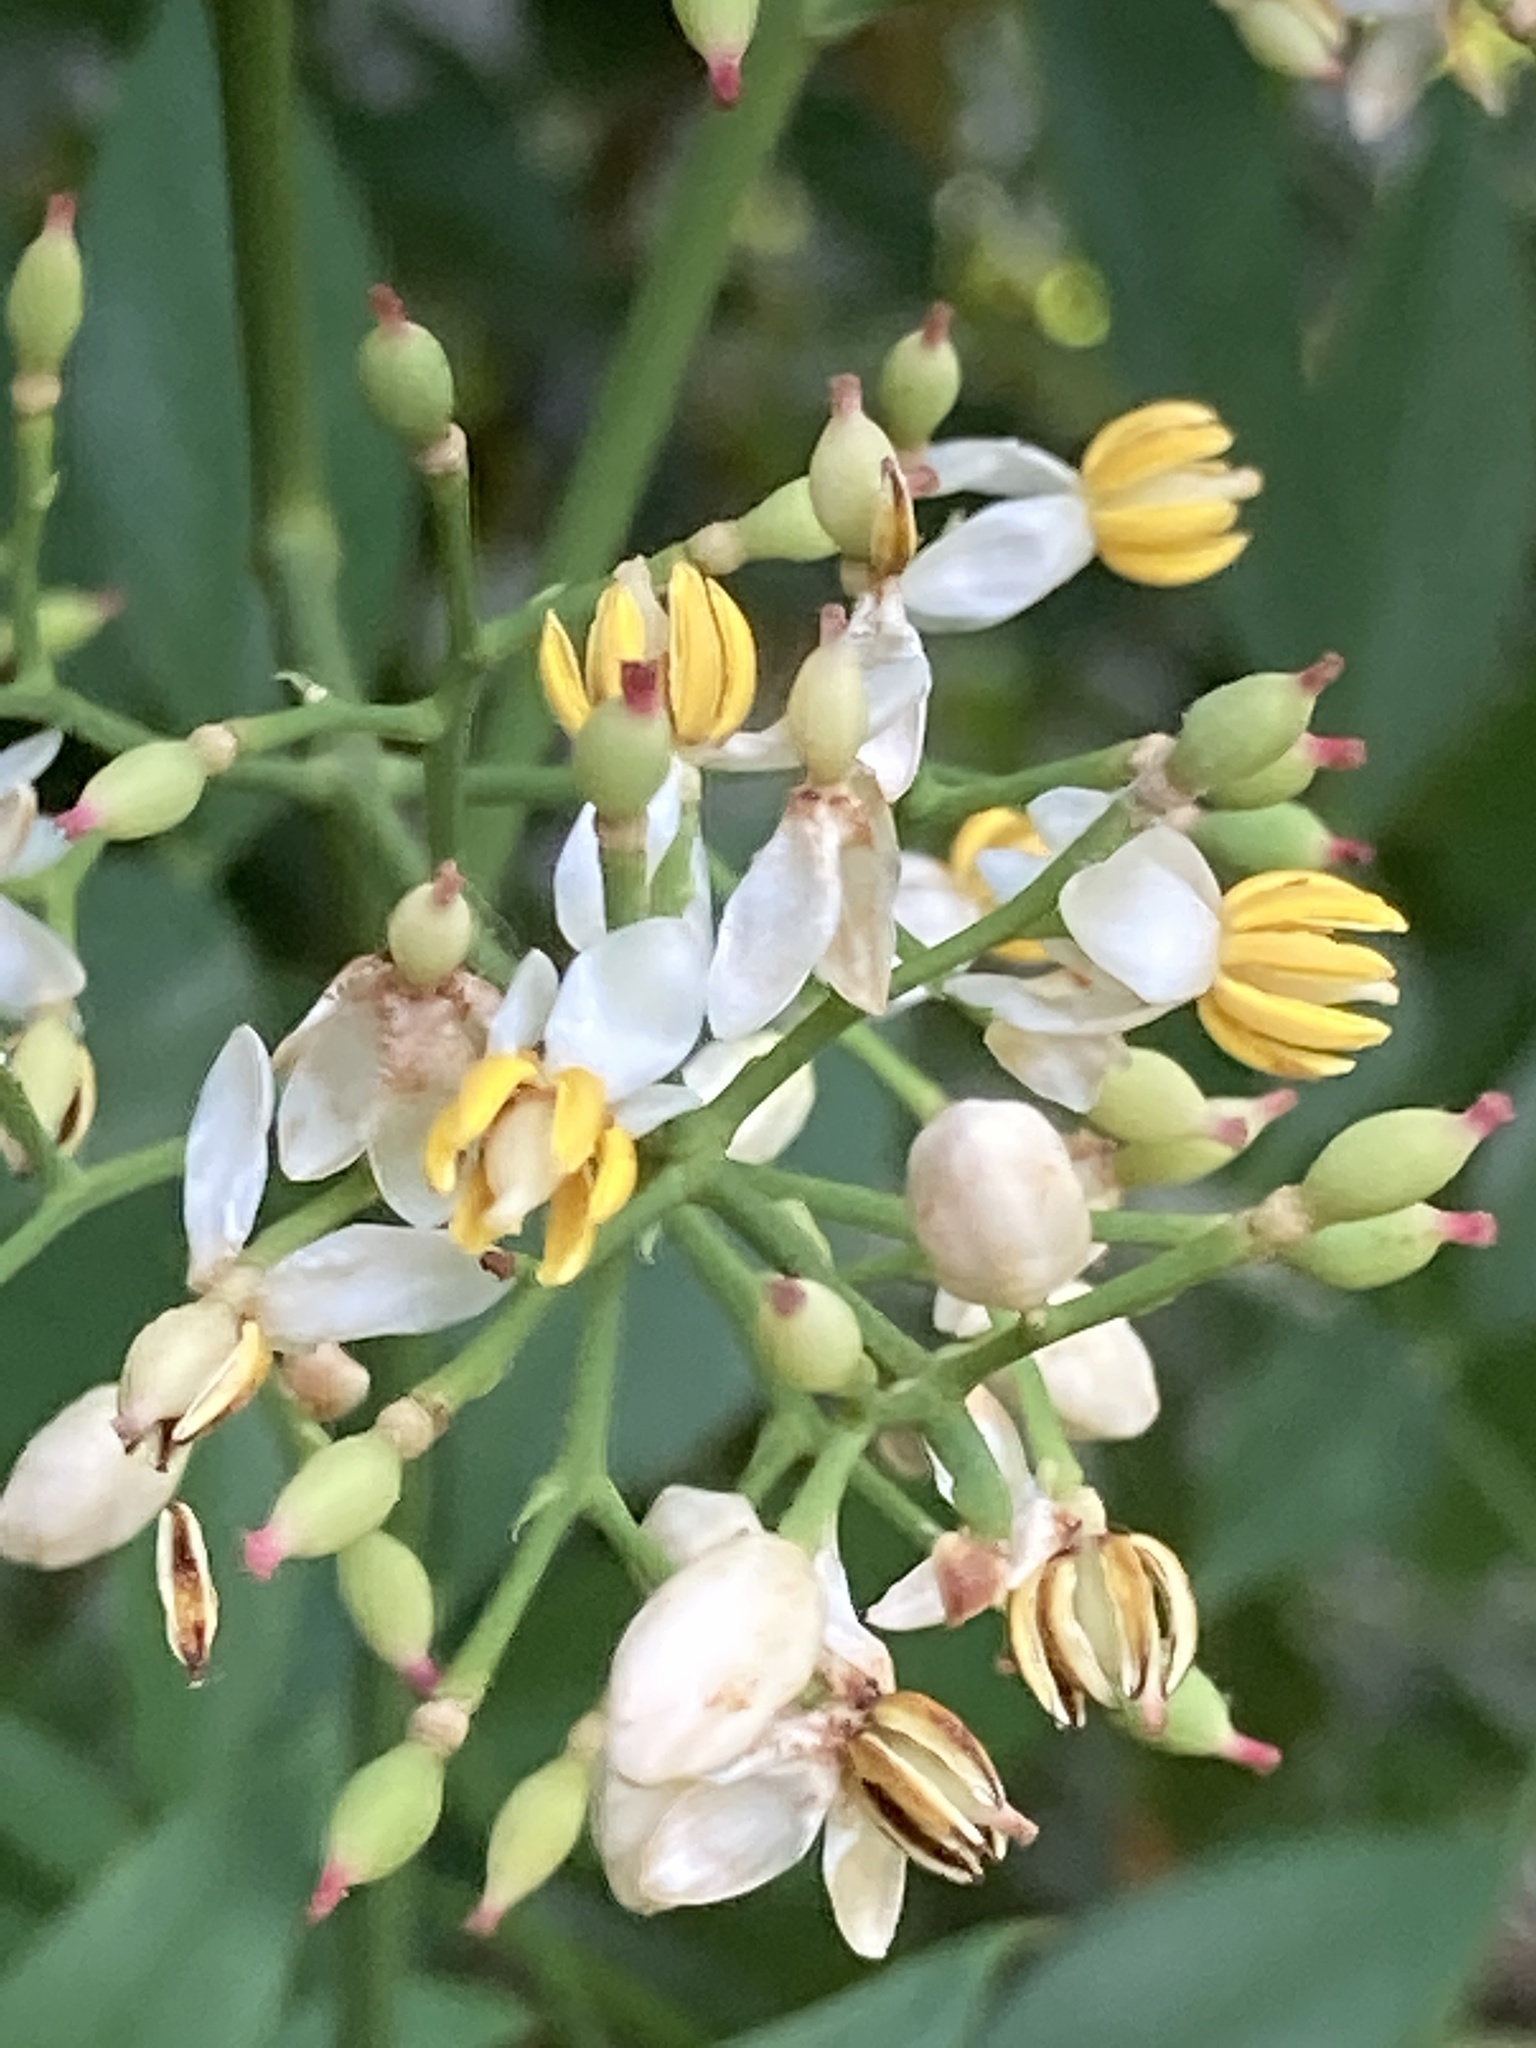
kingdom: Plantae
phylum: Tracheophyta
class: Magnoliopsida
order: Ranunculales
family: Berberidaceae
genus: Nandina
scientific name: Nandina domestica
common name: Sacred bamboo
